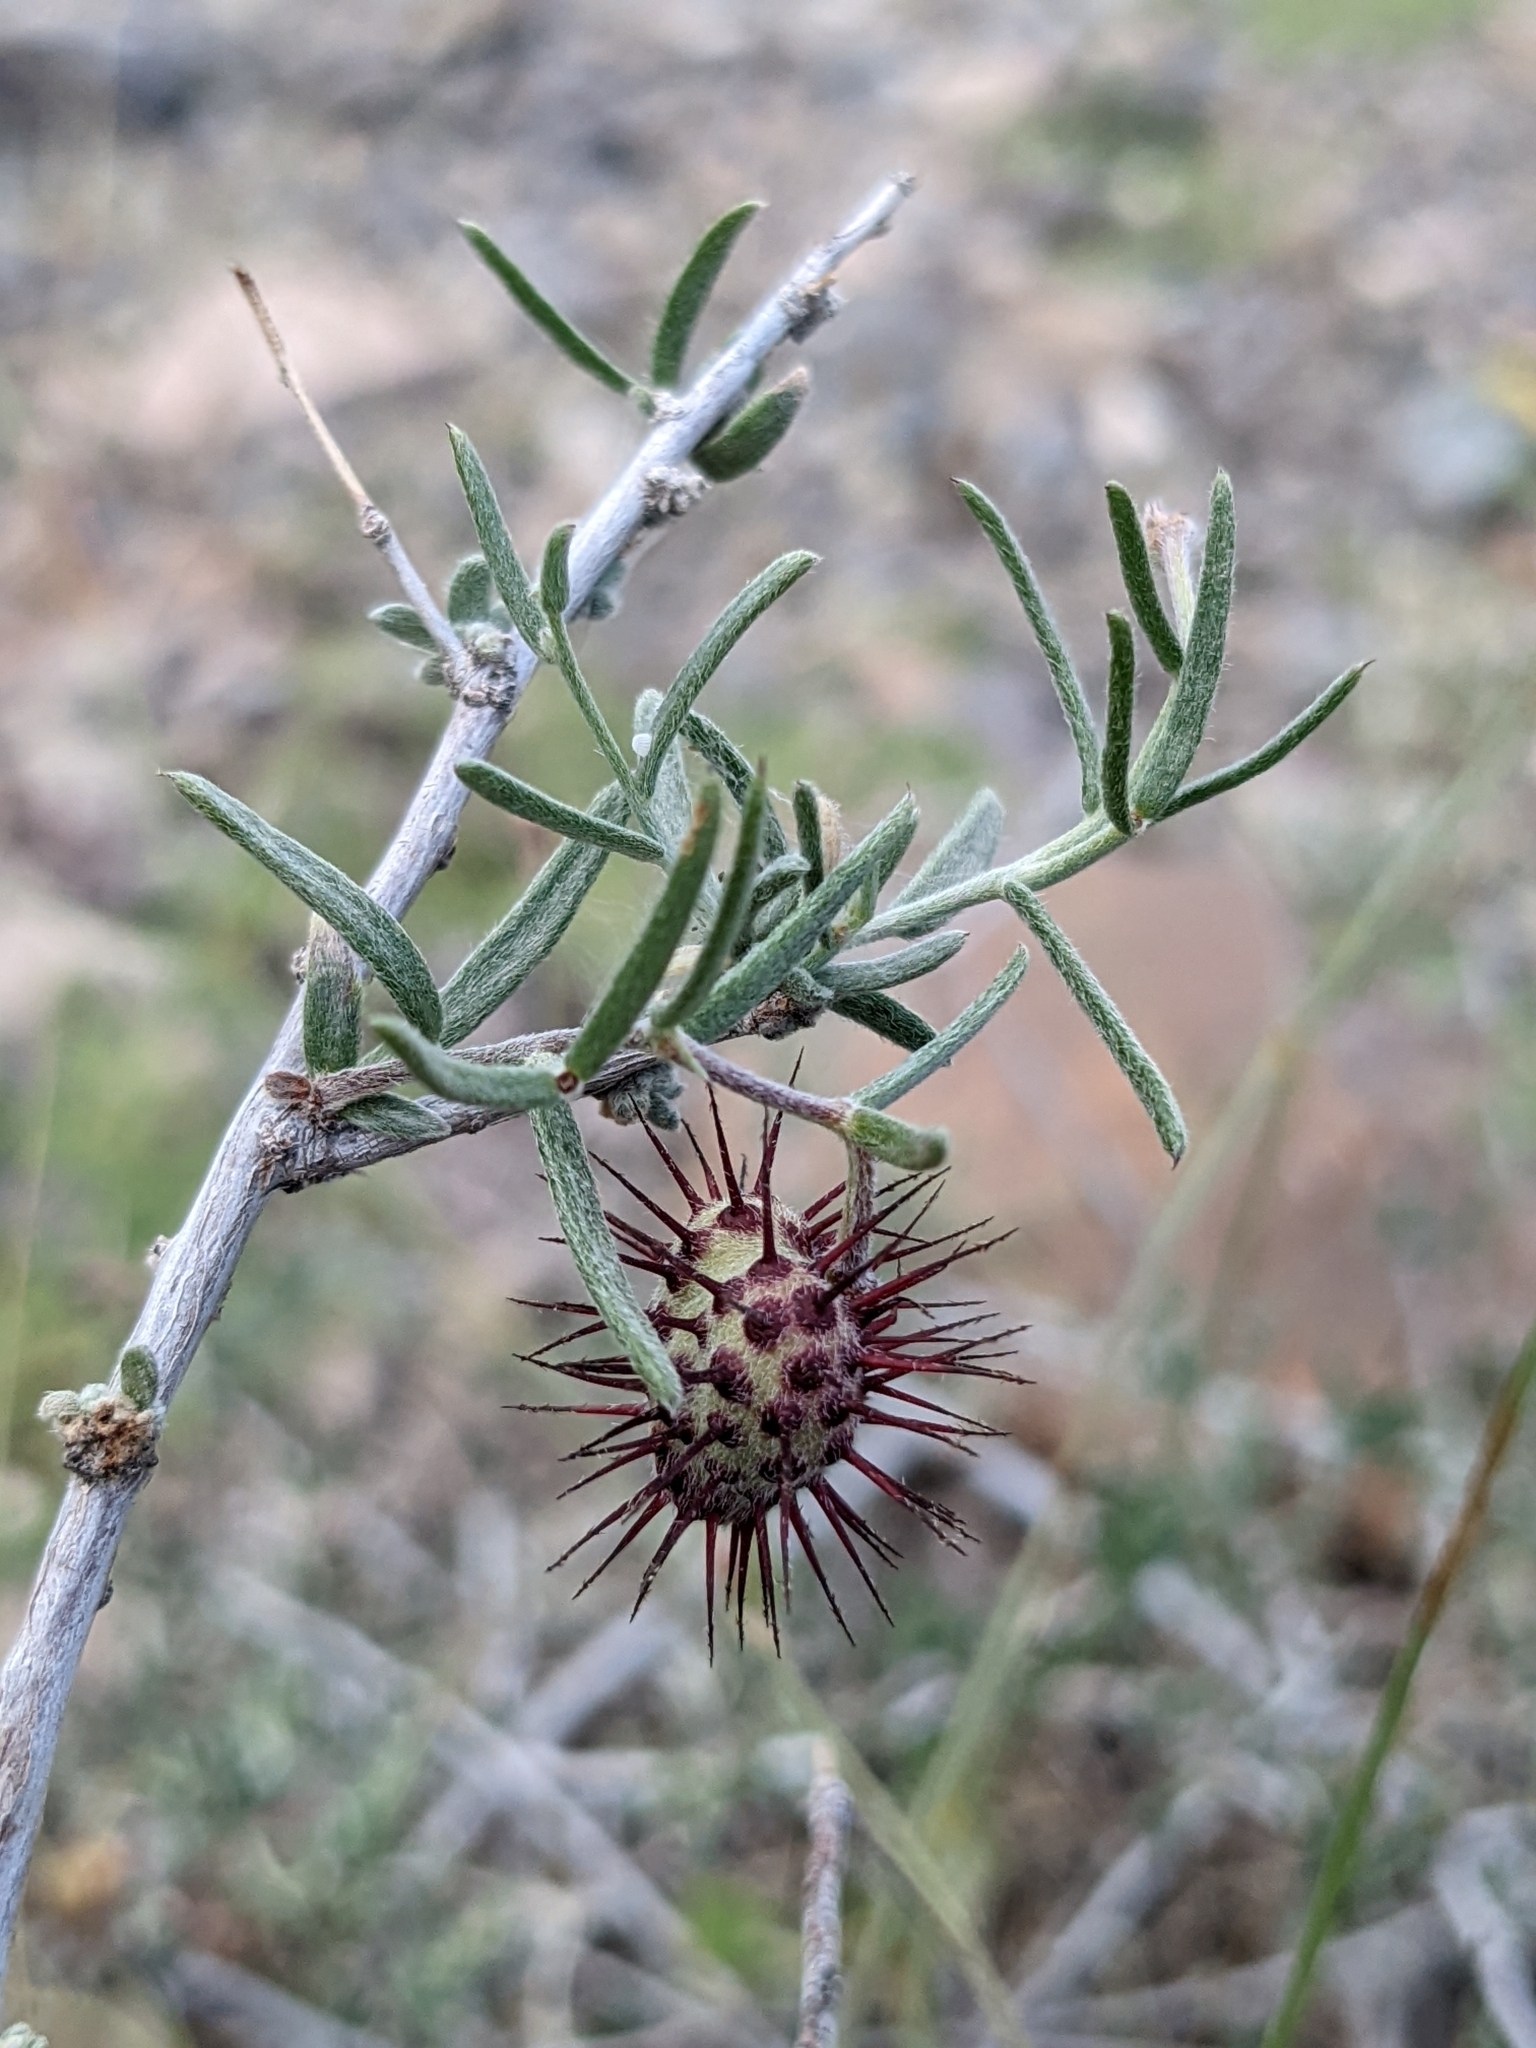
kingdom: Plantae
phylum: Tracheophyta
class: Magnoliopsida
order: Zygophyllales
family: Krameriaceae
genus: Krameria
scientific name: Krameria erecta
